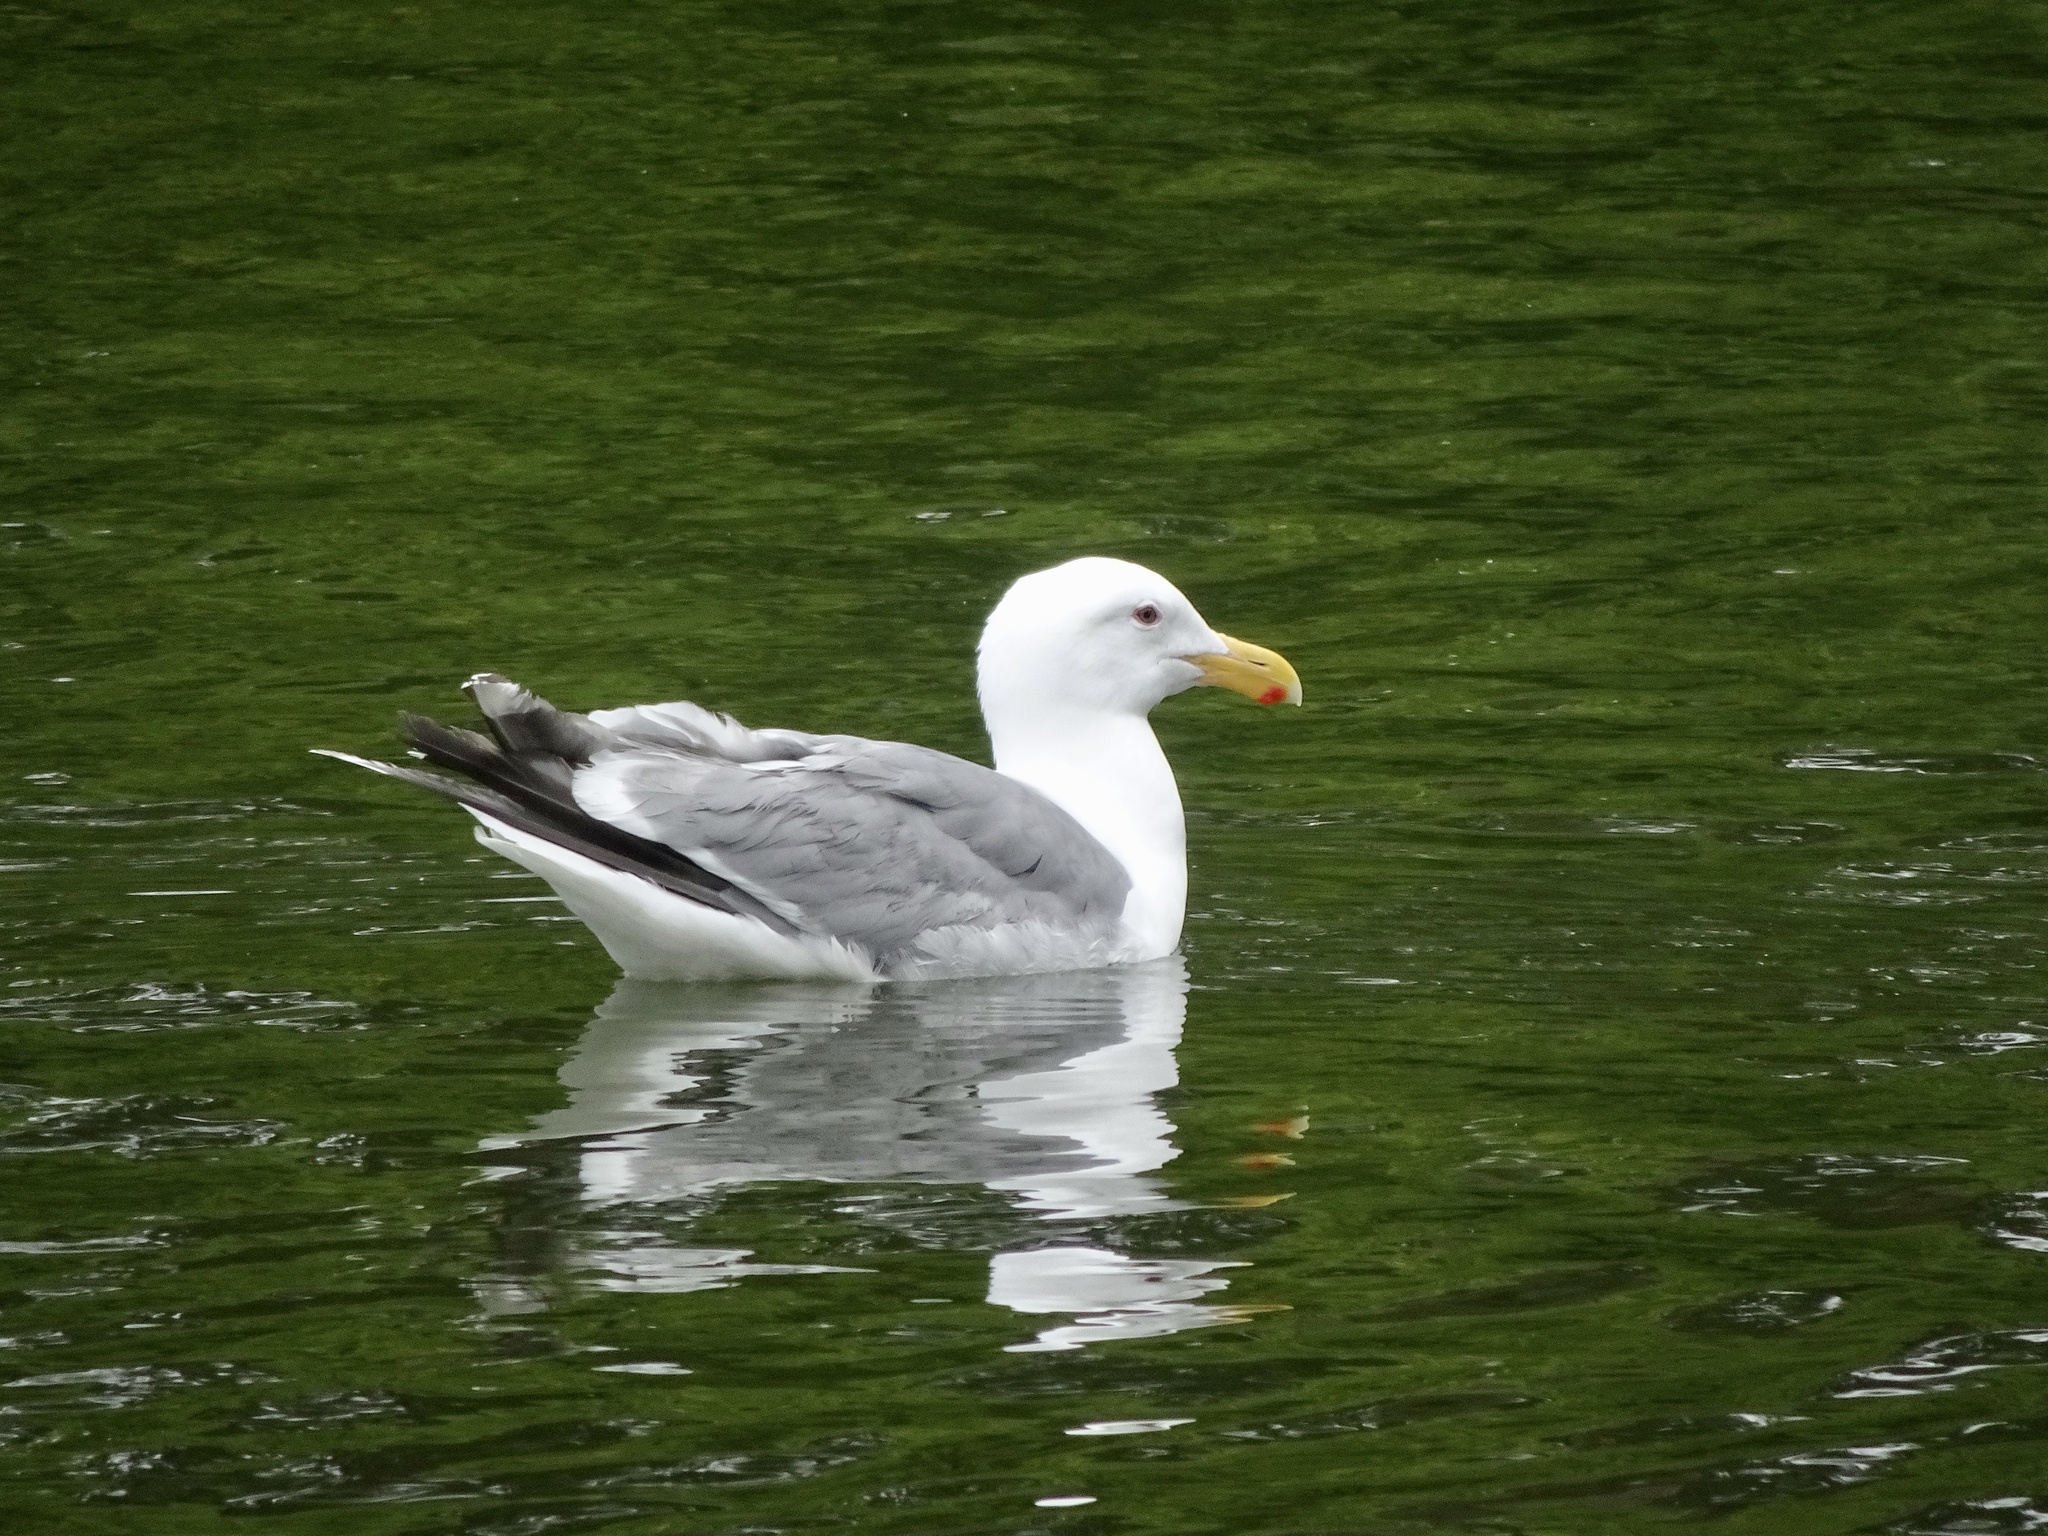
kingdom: Animalia
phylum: Chordata
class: Aves
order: Charadriiformes
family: Laridae
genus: Larus
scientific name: Larus
